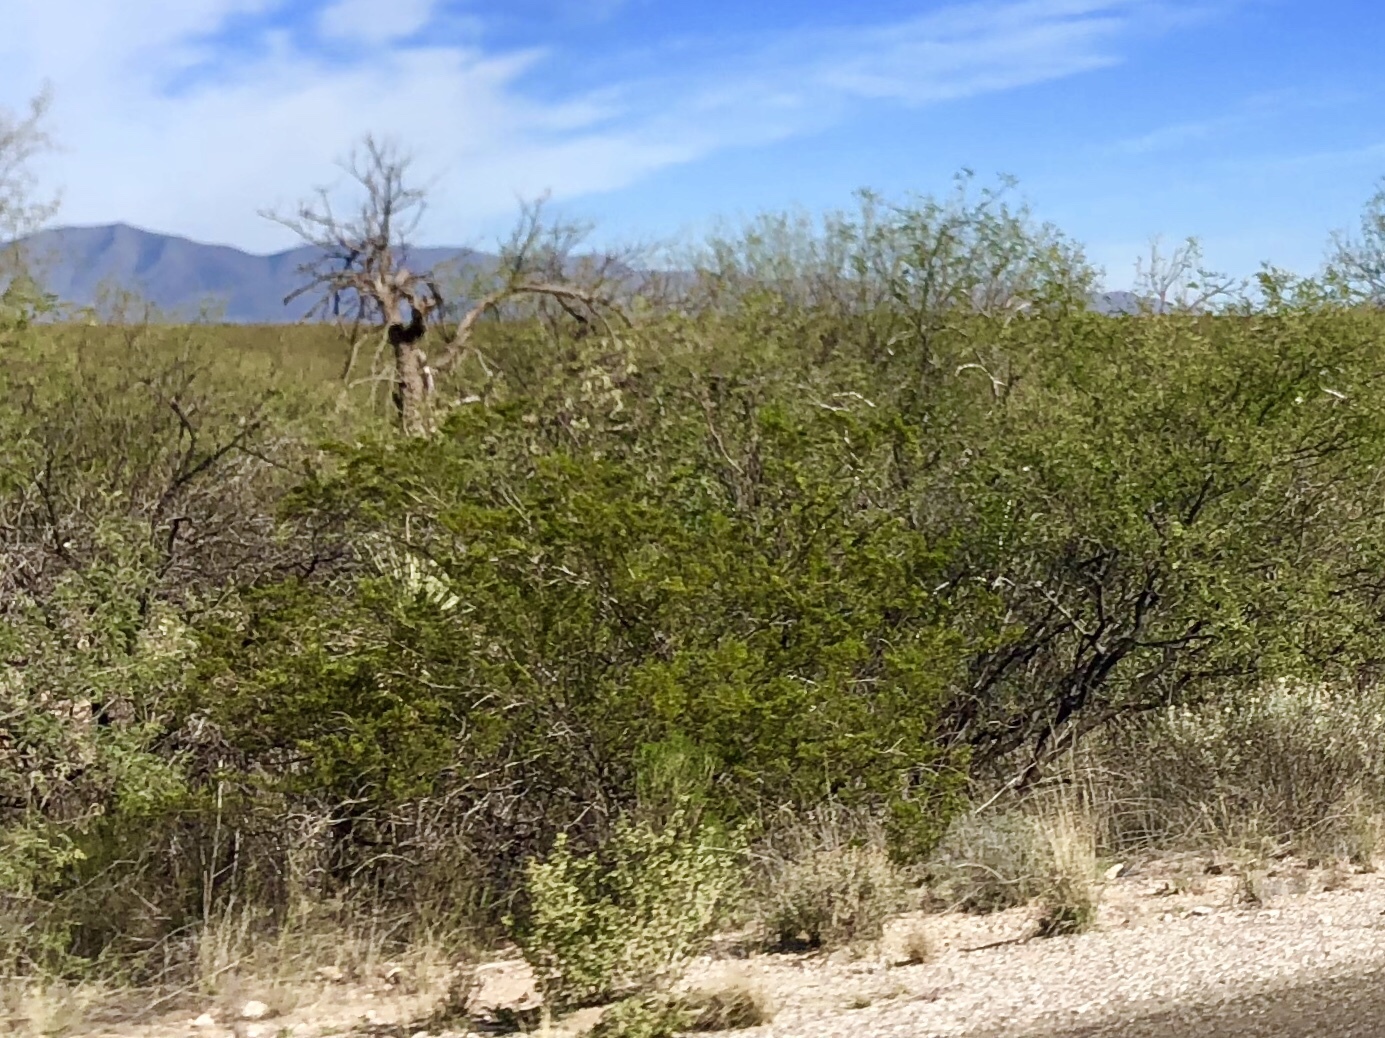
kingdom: Plantae
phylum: Tracheophyta
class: Magnoliopsida
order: Zygophyllales
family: Zygophyllaceae
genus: Larrea
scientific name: Larrea tridentata
